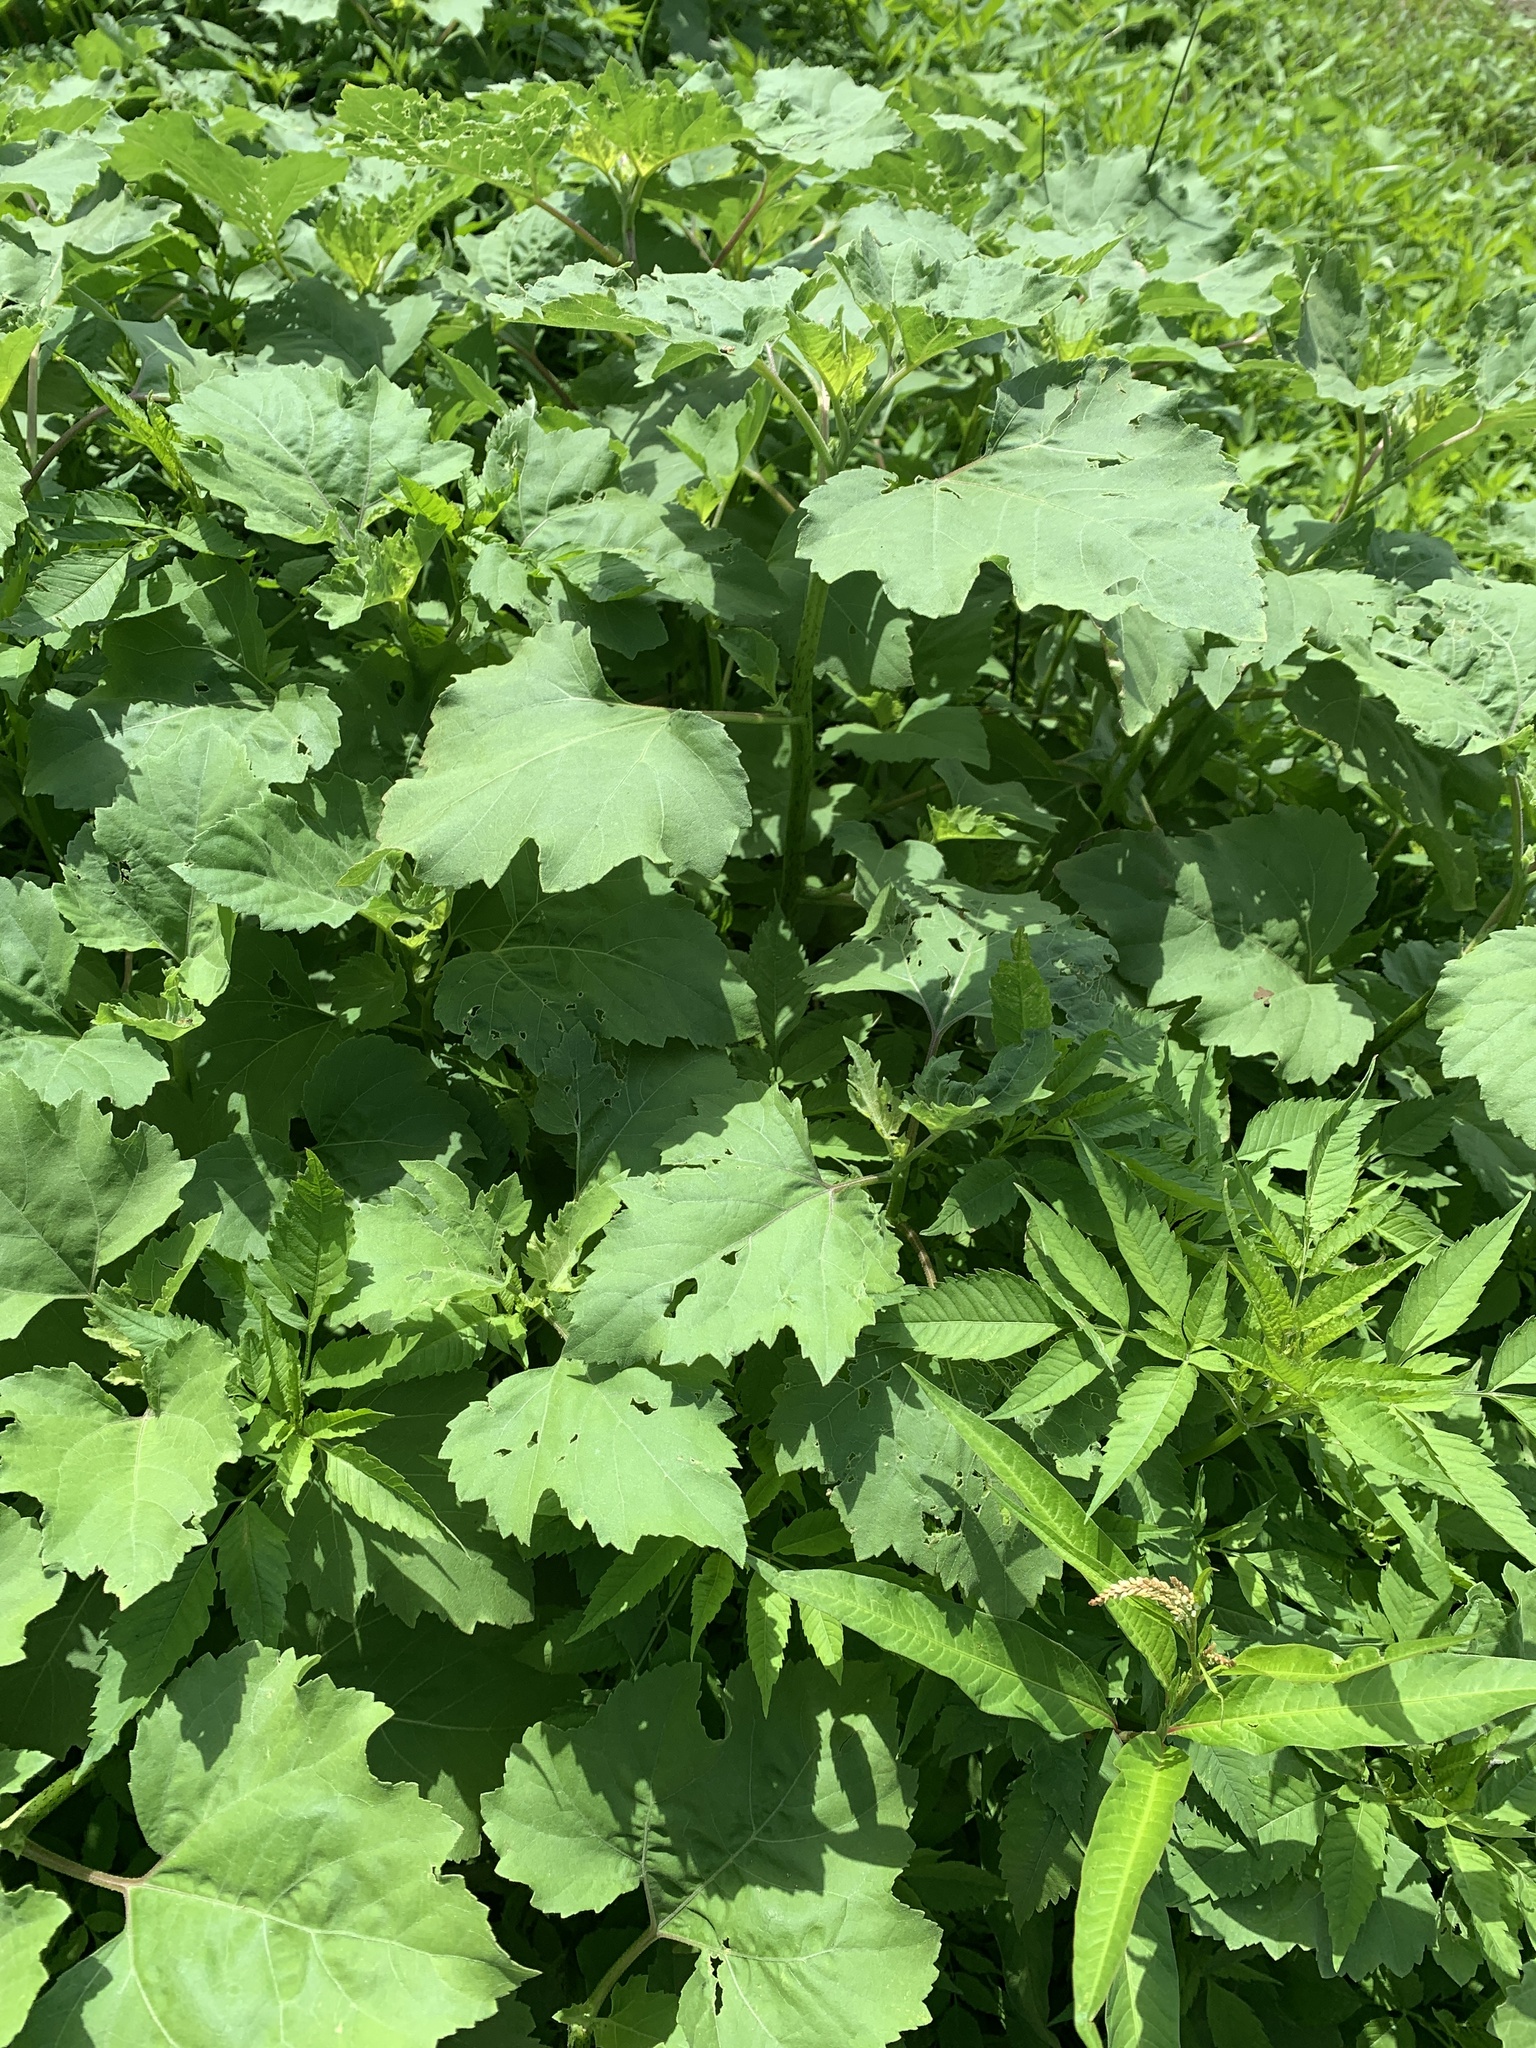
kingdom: Plantae
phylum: Tracheophyta
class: Magnoliopsida
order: Asterales
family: Asteraceae
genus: Xanthium
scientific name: Xanthium strumarium
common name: Rough cocklebur
